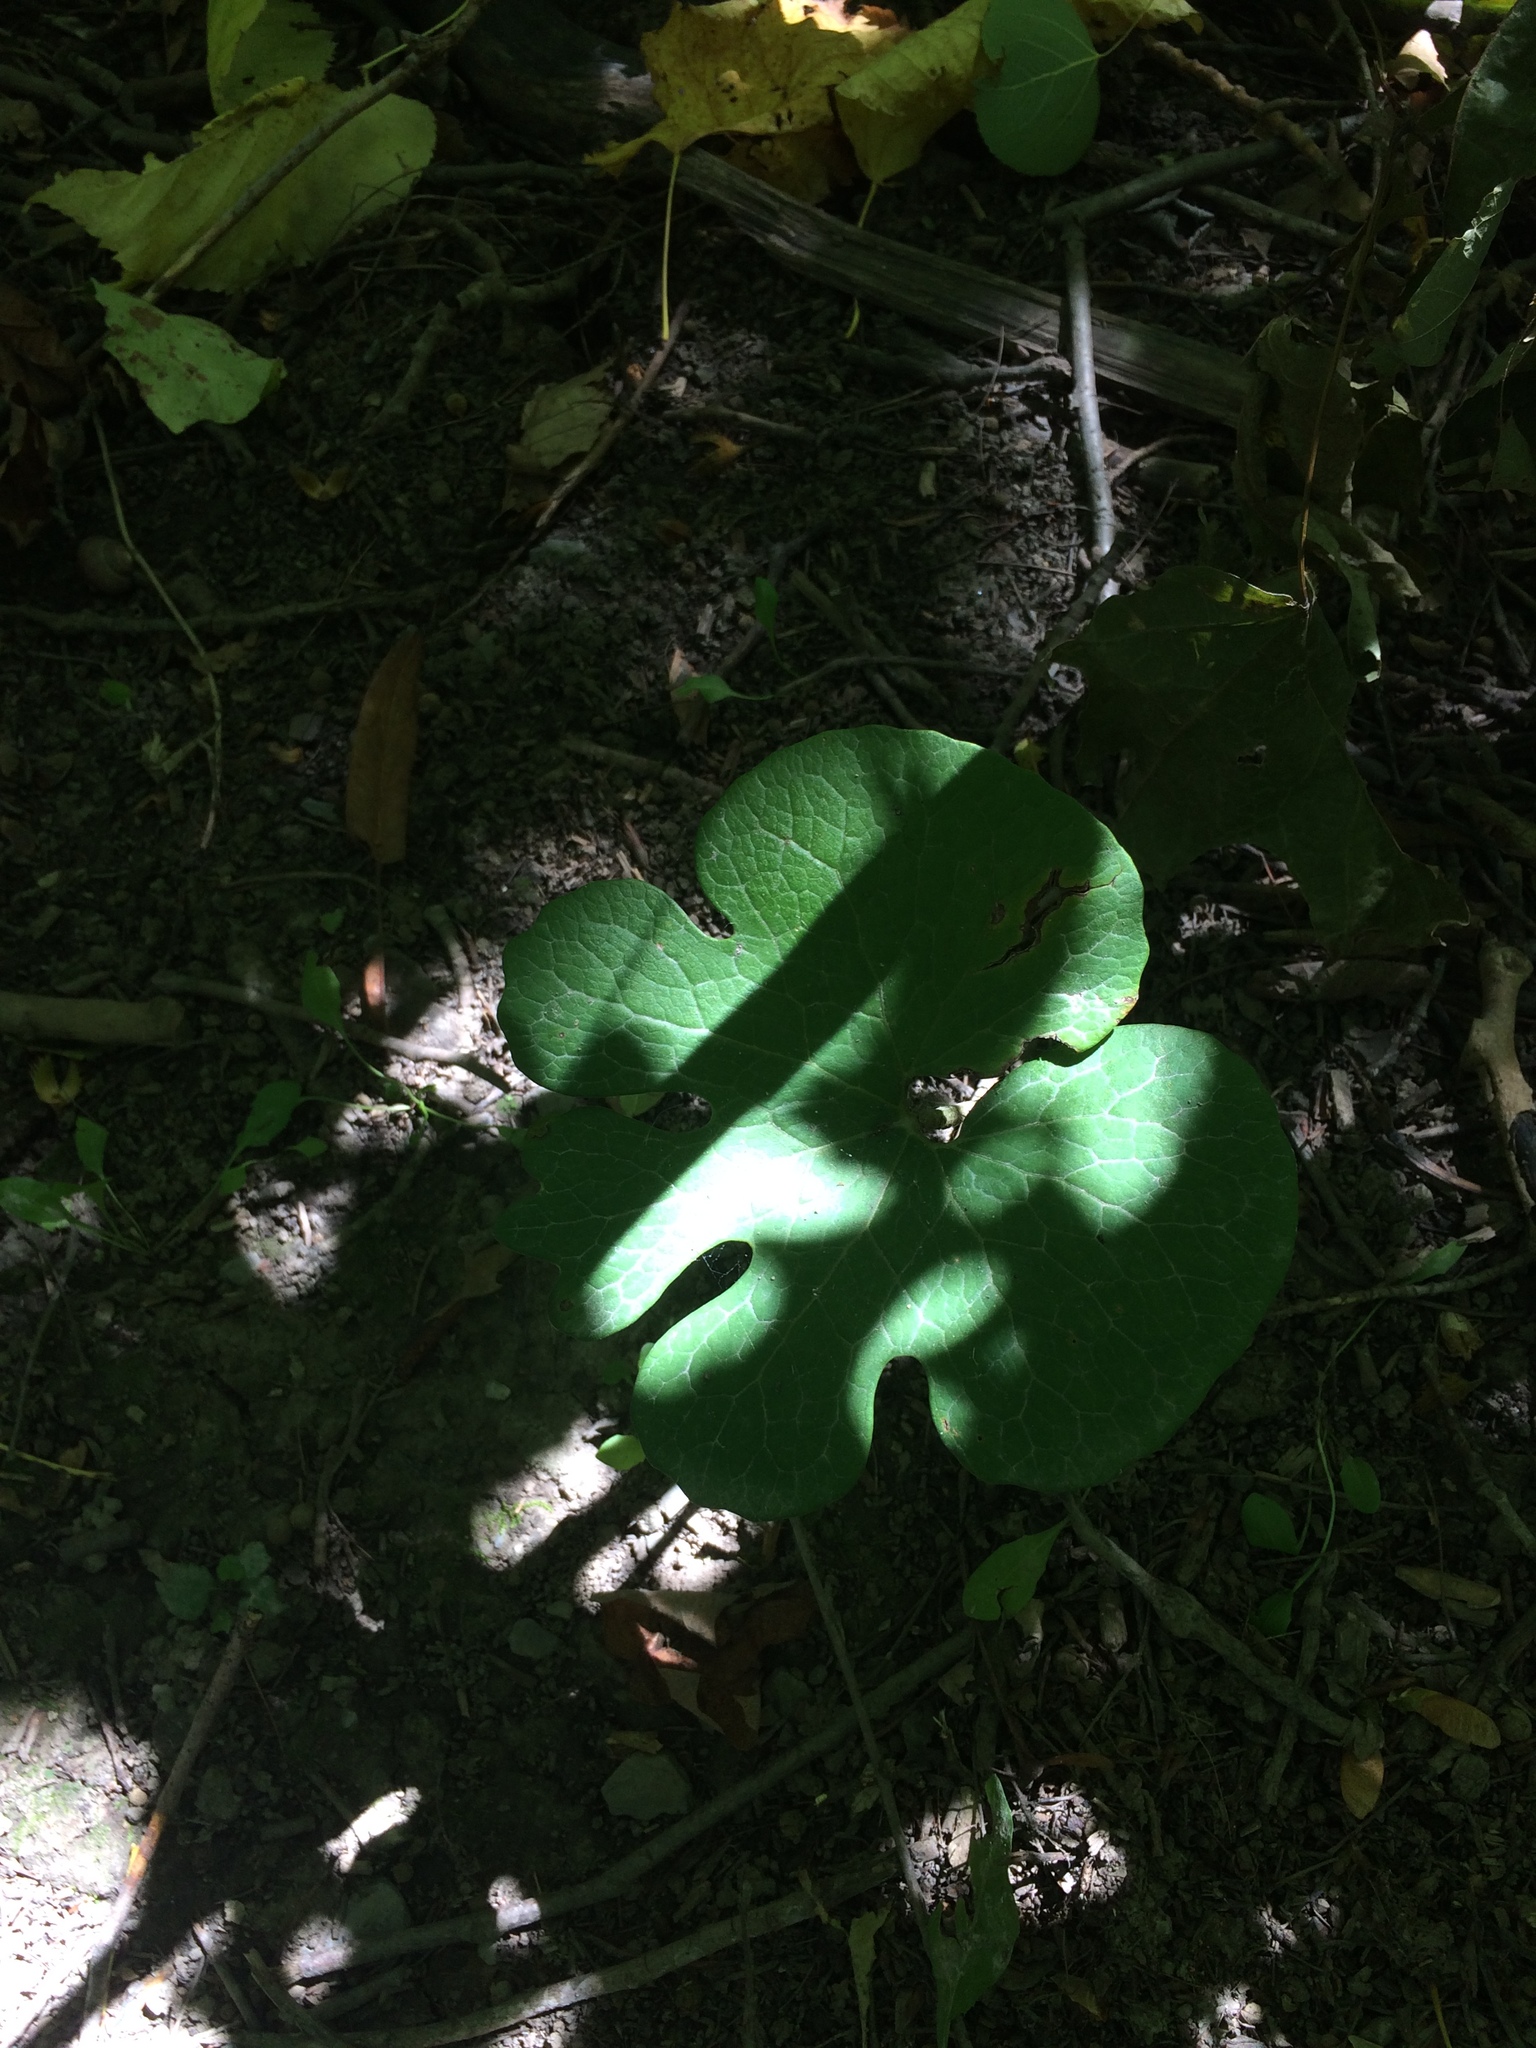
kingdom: Plantae
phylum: Tracheophyta
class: Magnoliopsida
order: Ranunculales
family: Papaveraceae
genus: Sanguinaria
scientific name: Sanguinaria canadensis
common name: Bloodroot
